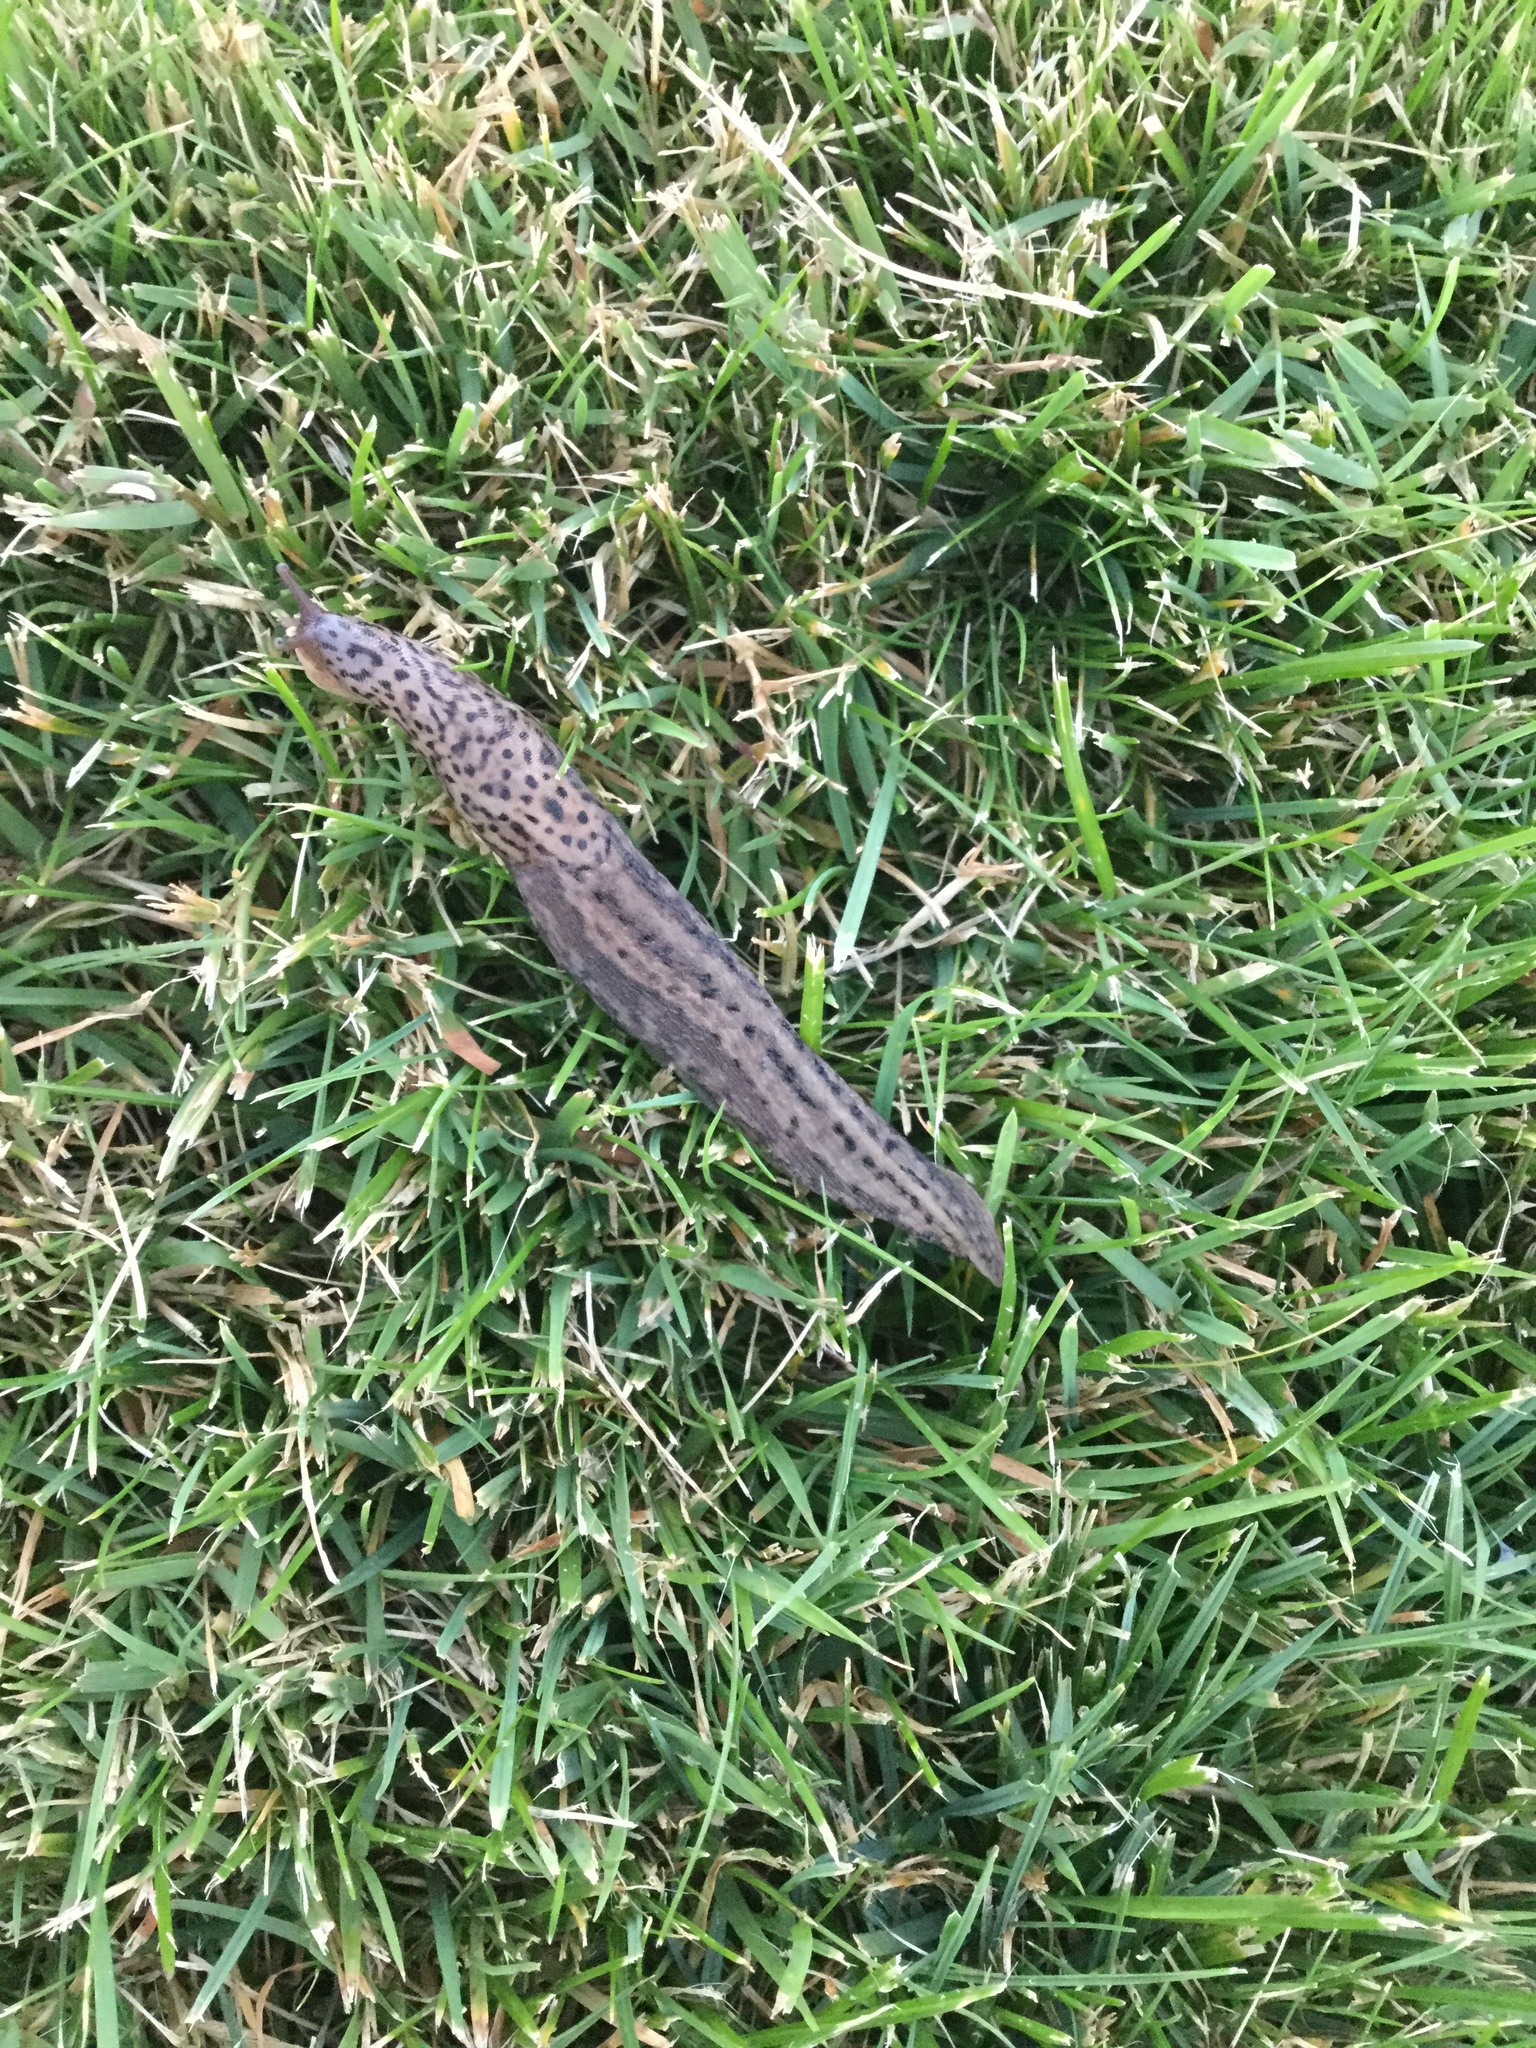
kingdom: Animalia
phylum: Mollusca
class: Gastropoda
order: Stylommatophora
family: Limacidae
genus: Limax
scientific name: Limax maximus
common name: Great grey slug
